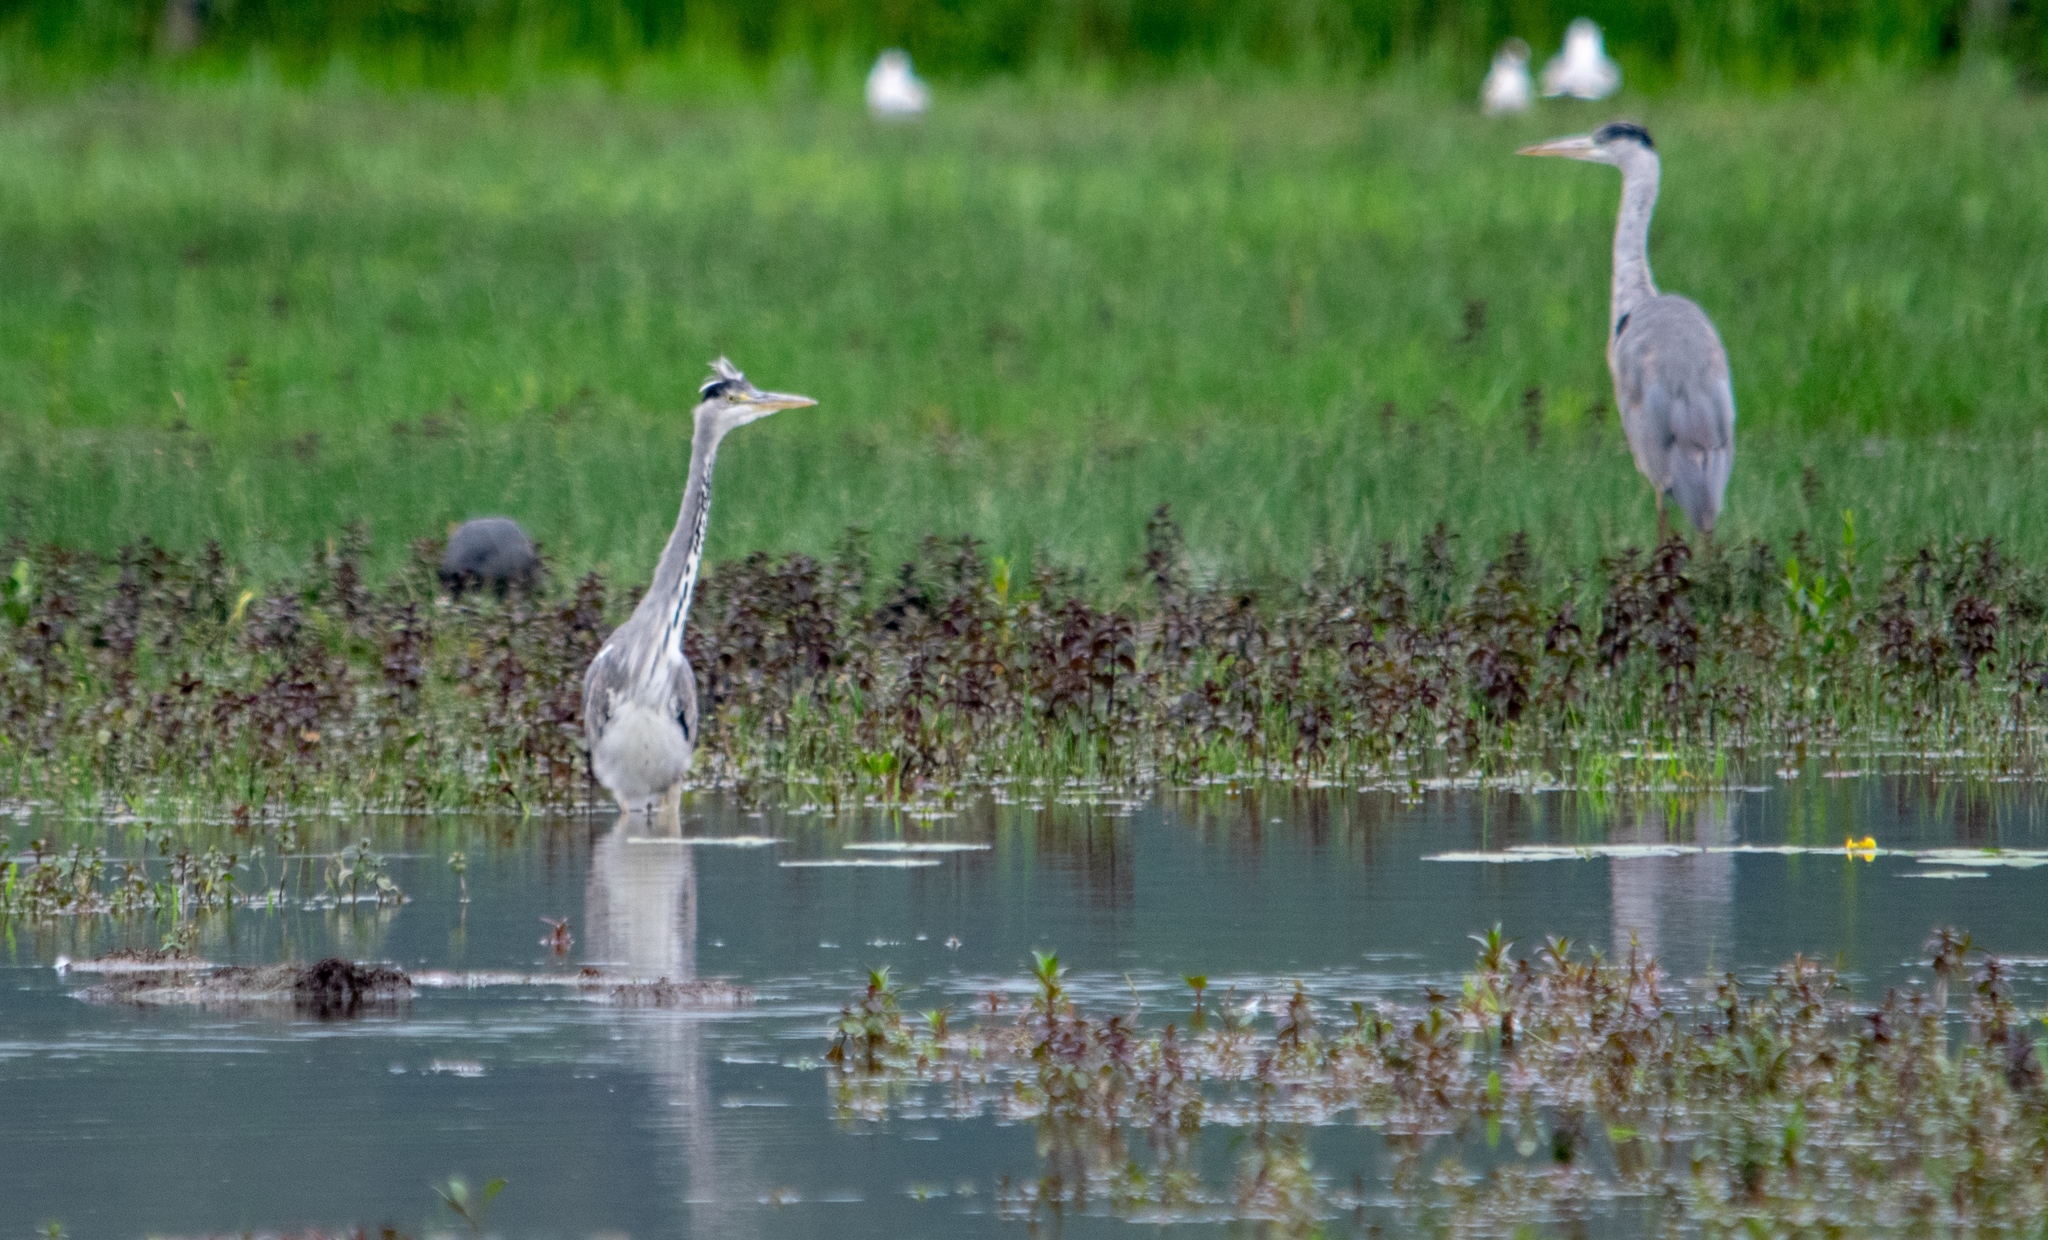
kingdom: Animalia
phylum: Chordata
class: Aves
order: Pelecaniformes
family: Ardeidae
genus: Ardea
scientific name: Ardea cinerea
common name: Grey heron
